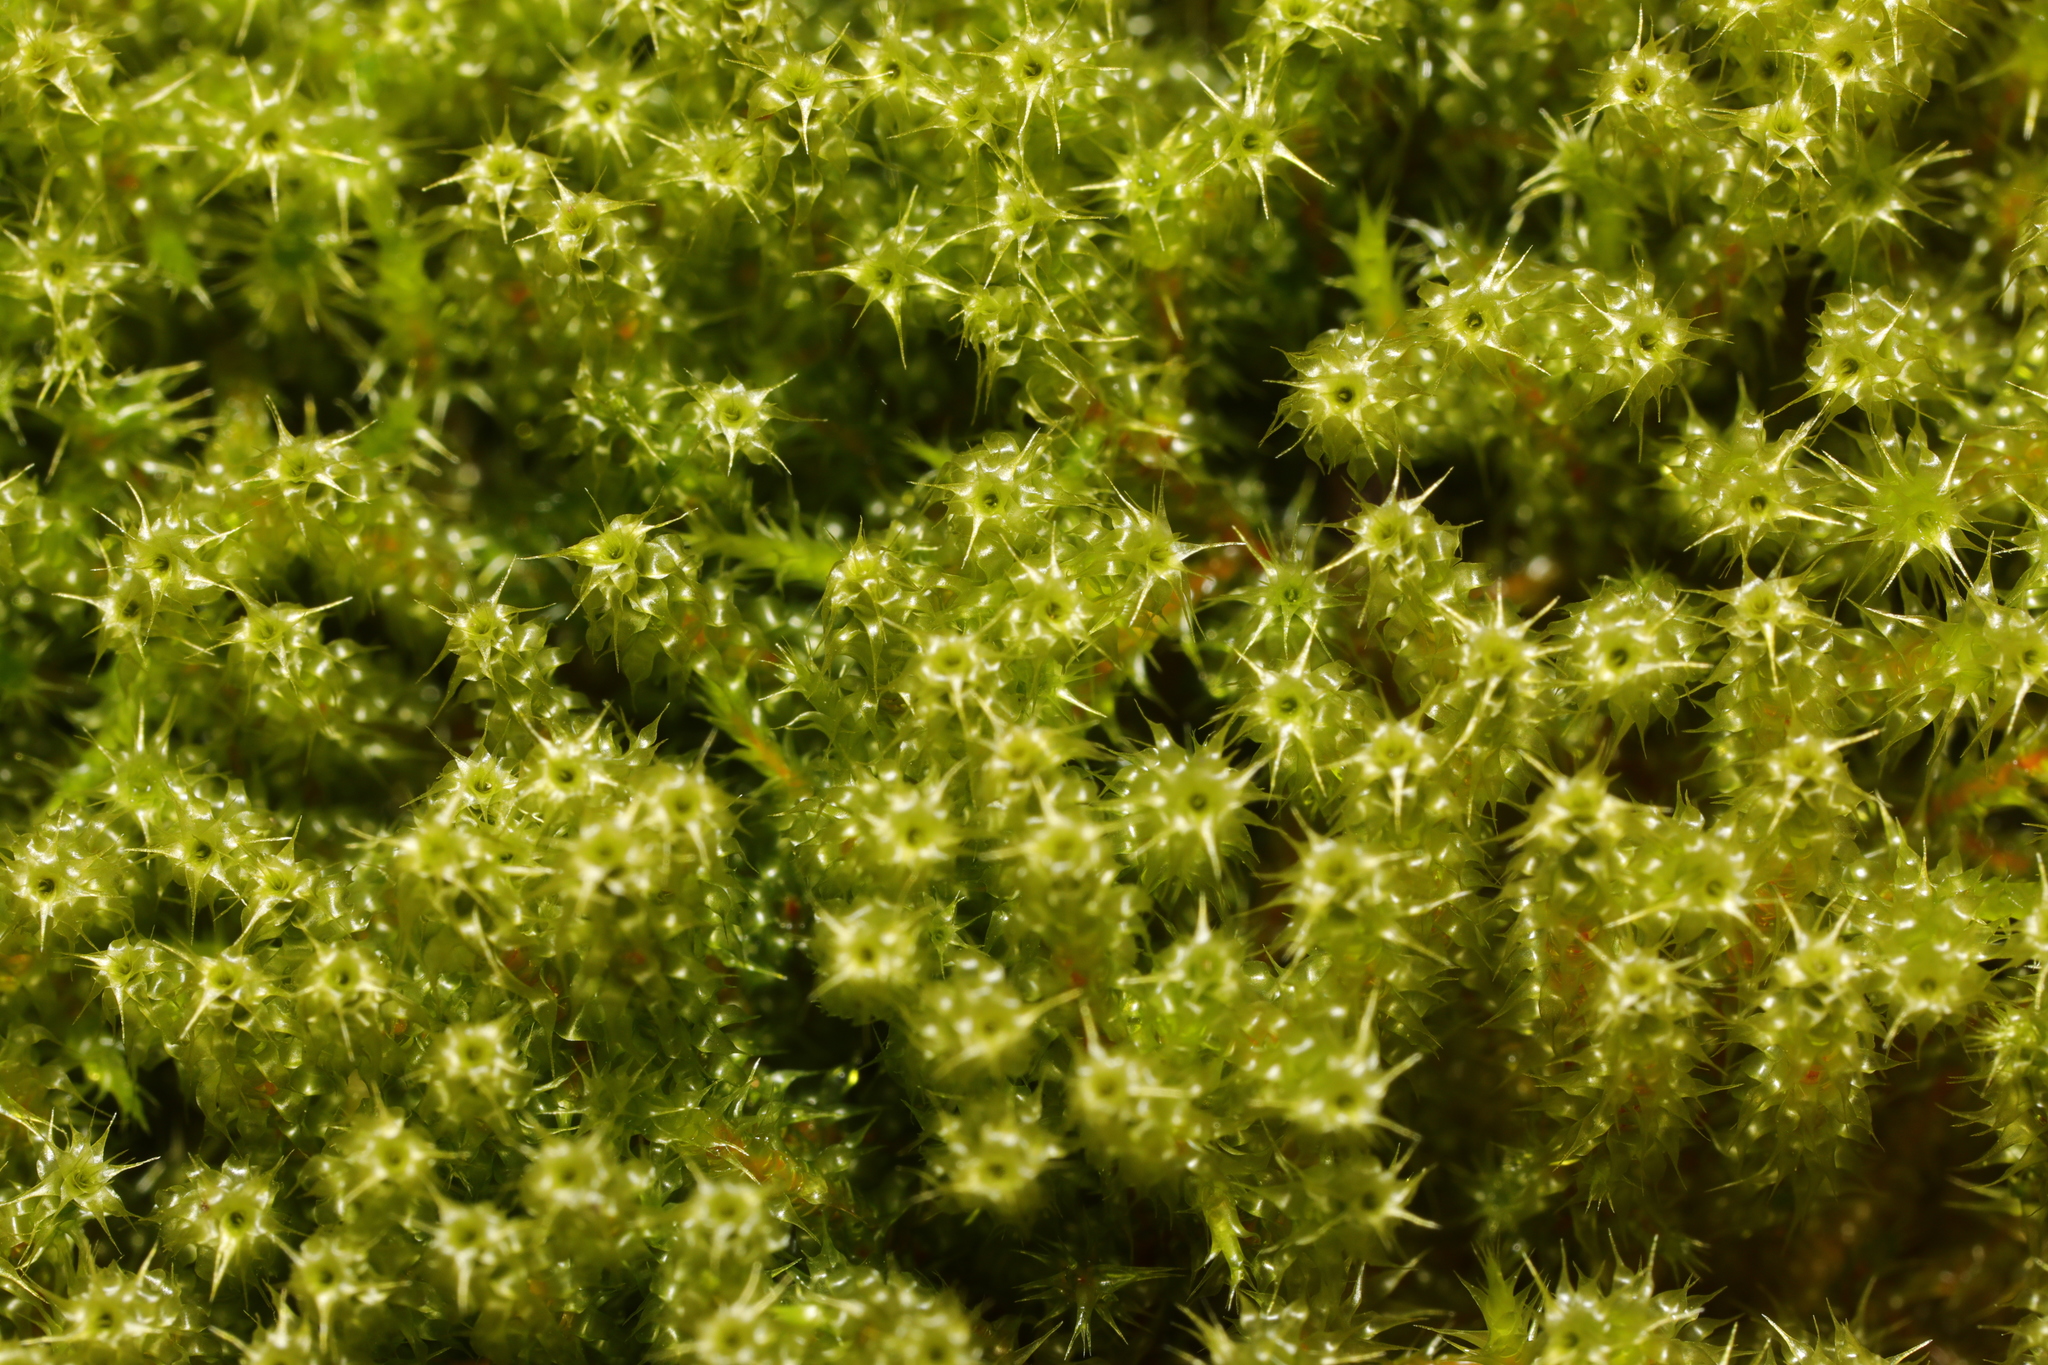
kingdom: Plantae
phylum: Bryophyta
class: Bryopsida
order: Hypnales
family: Hylocomiaceae
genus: Rhytidiadelphus
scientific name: Rhytidiadelphus squarrosus
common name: Springy turf-moss
